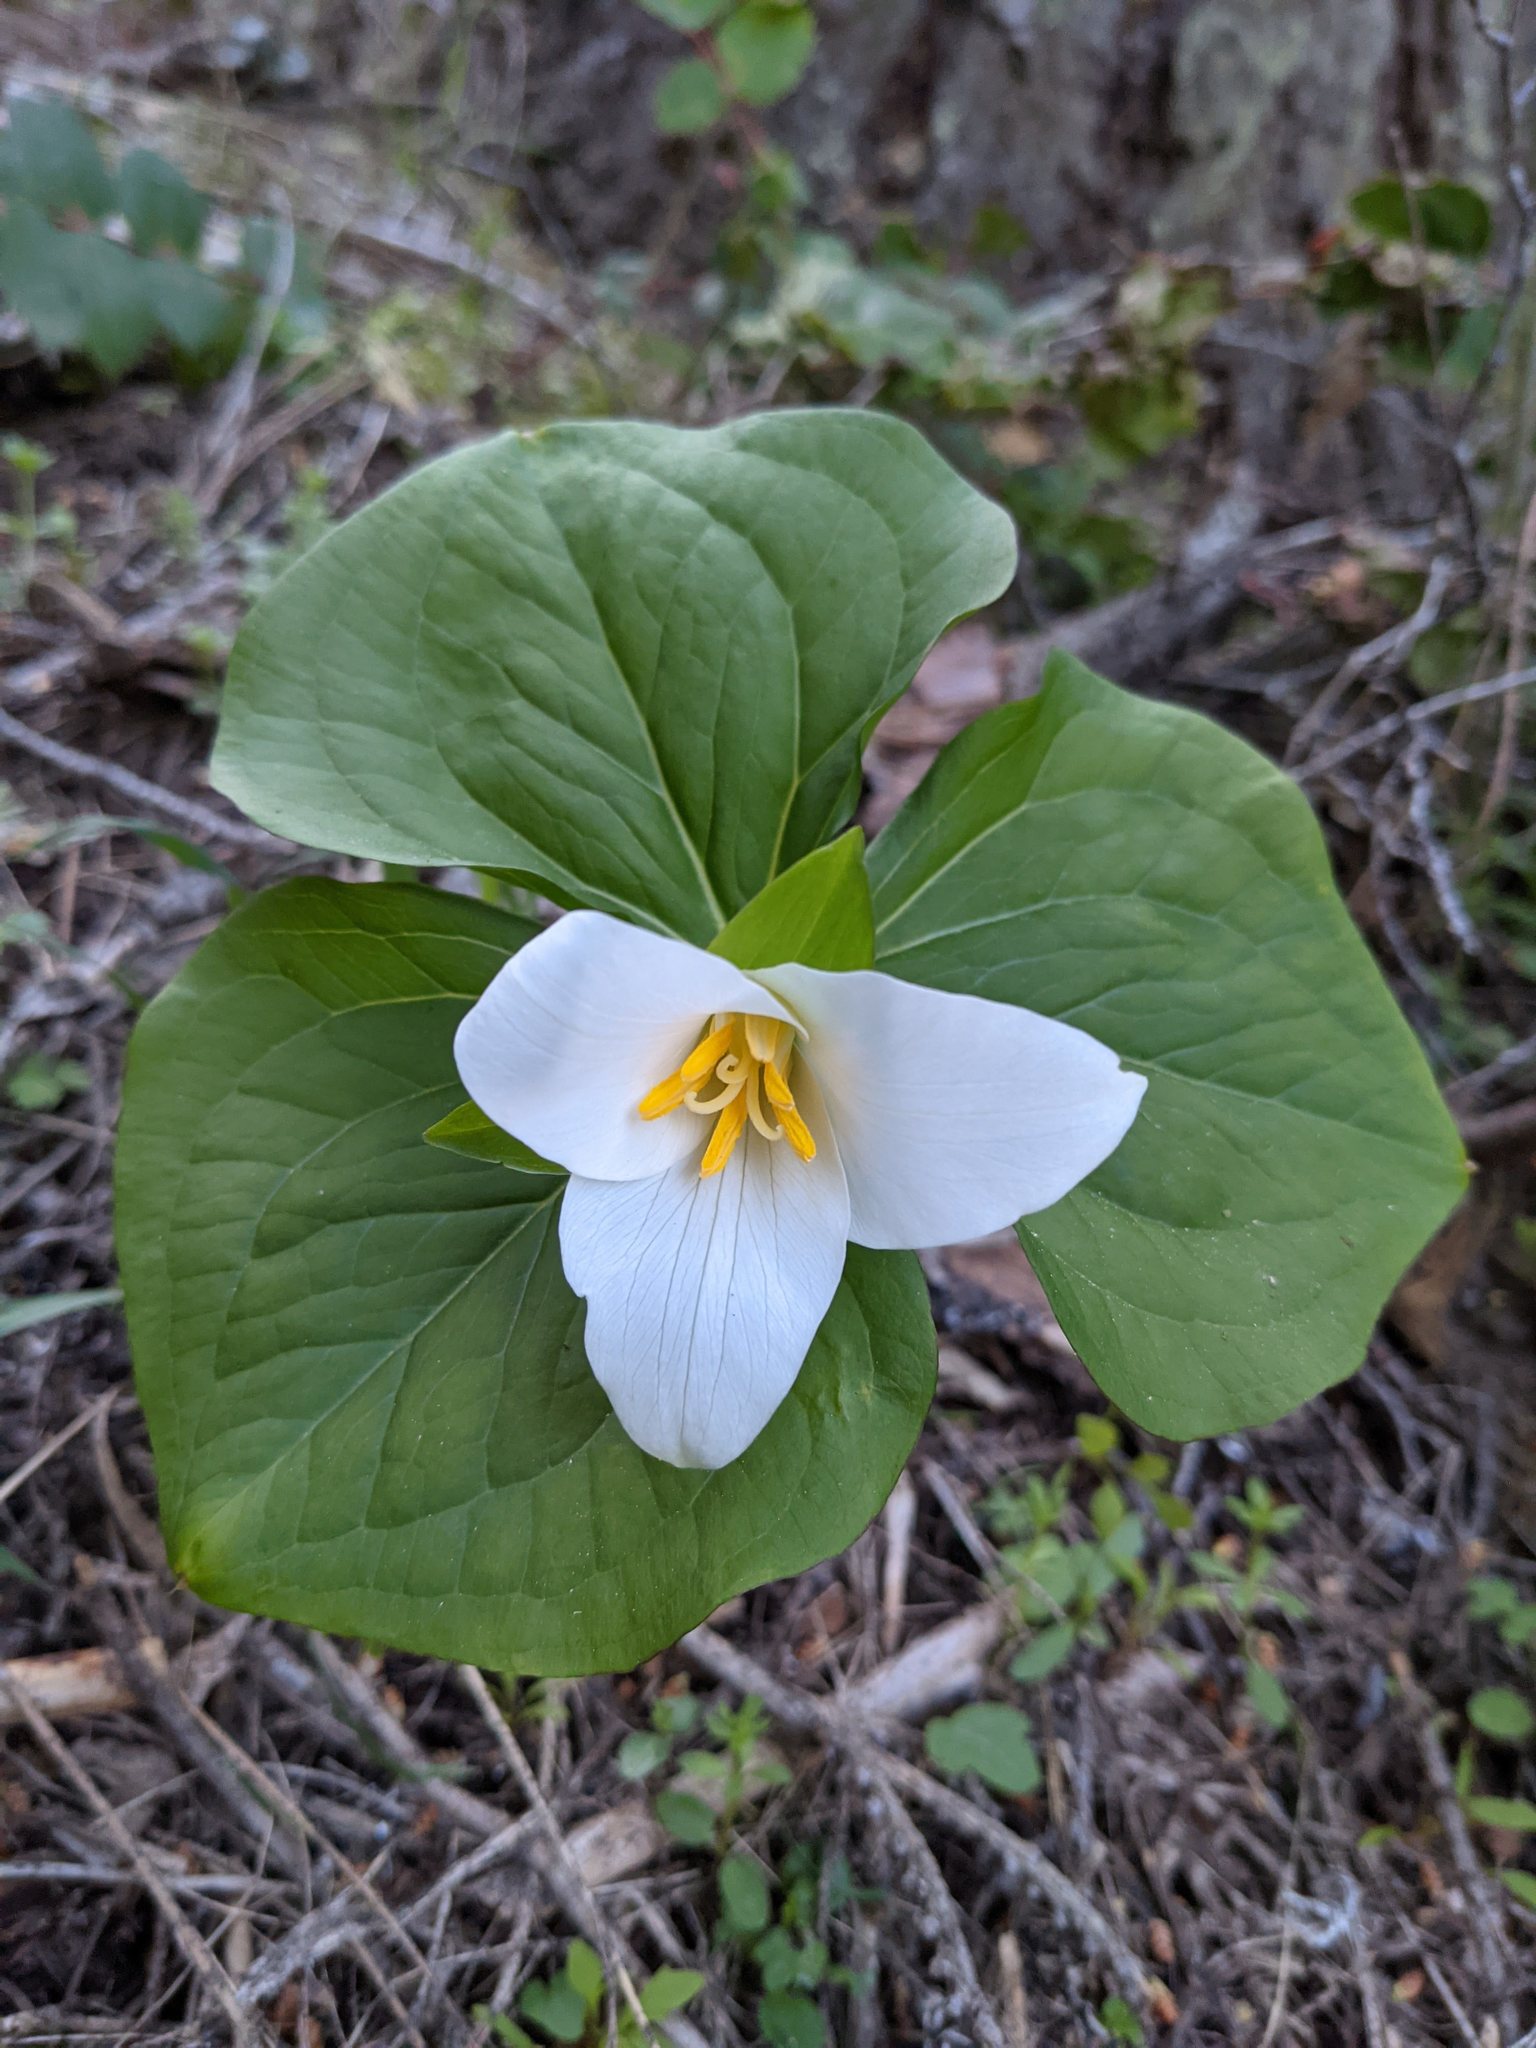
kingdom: Plantae
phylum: Tracheophyta
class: Liliopsida
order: Liliales
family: Melanthiaceae
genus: Trillium
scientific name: Trillium ovatum
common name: Pacific trillium
